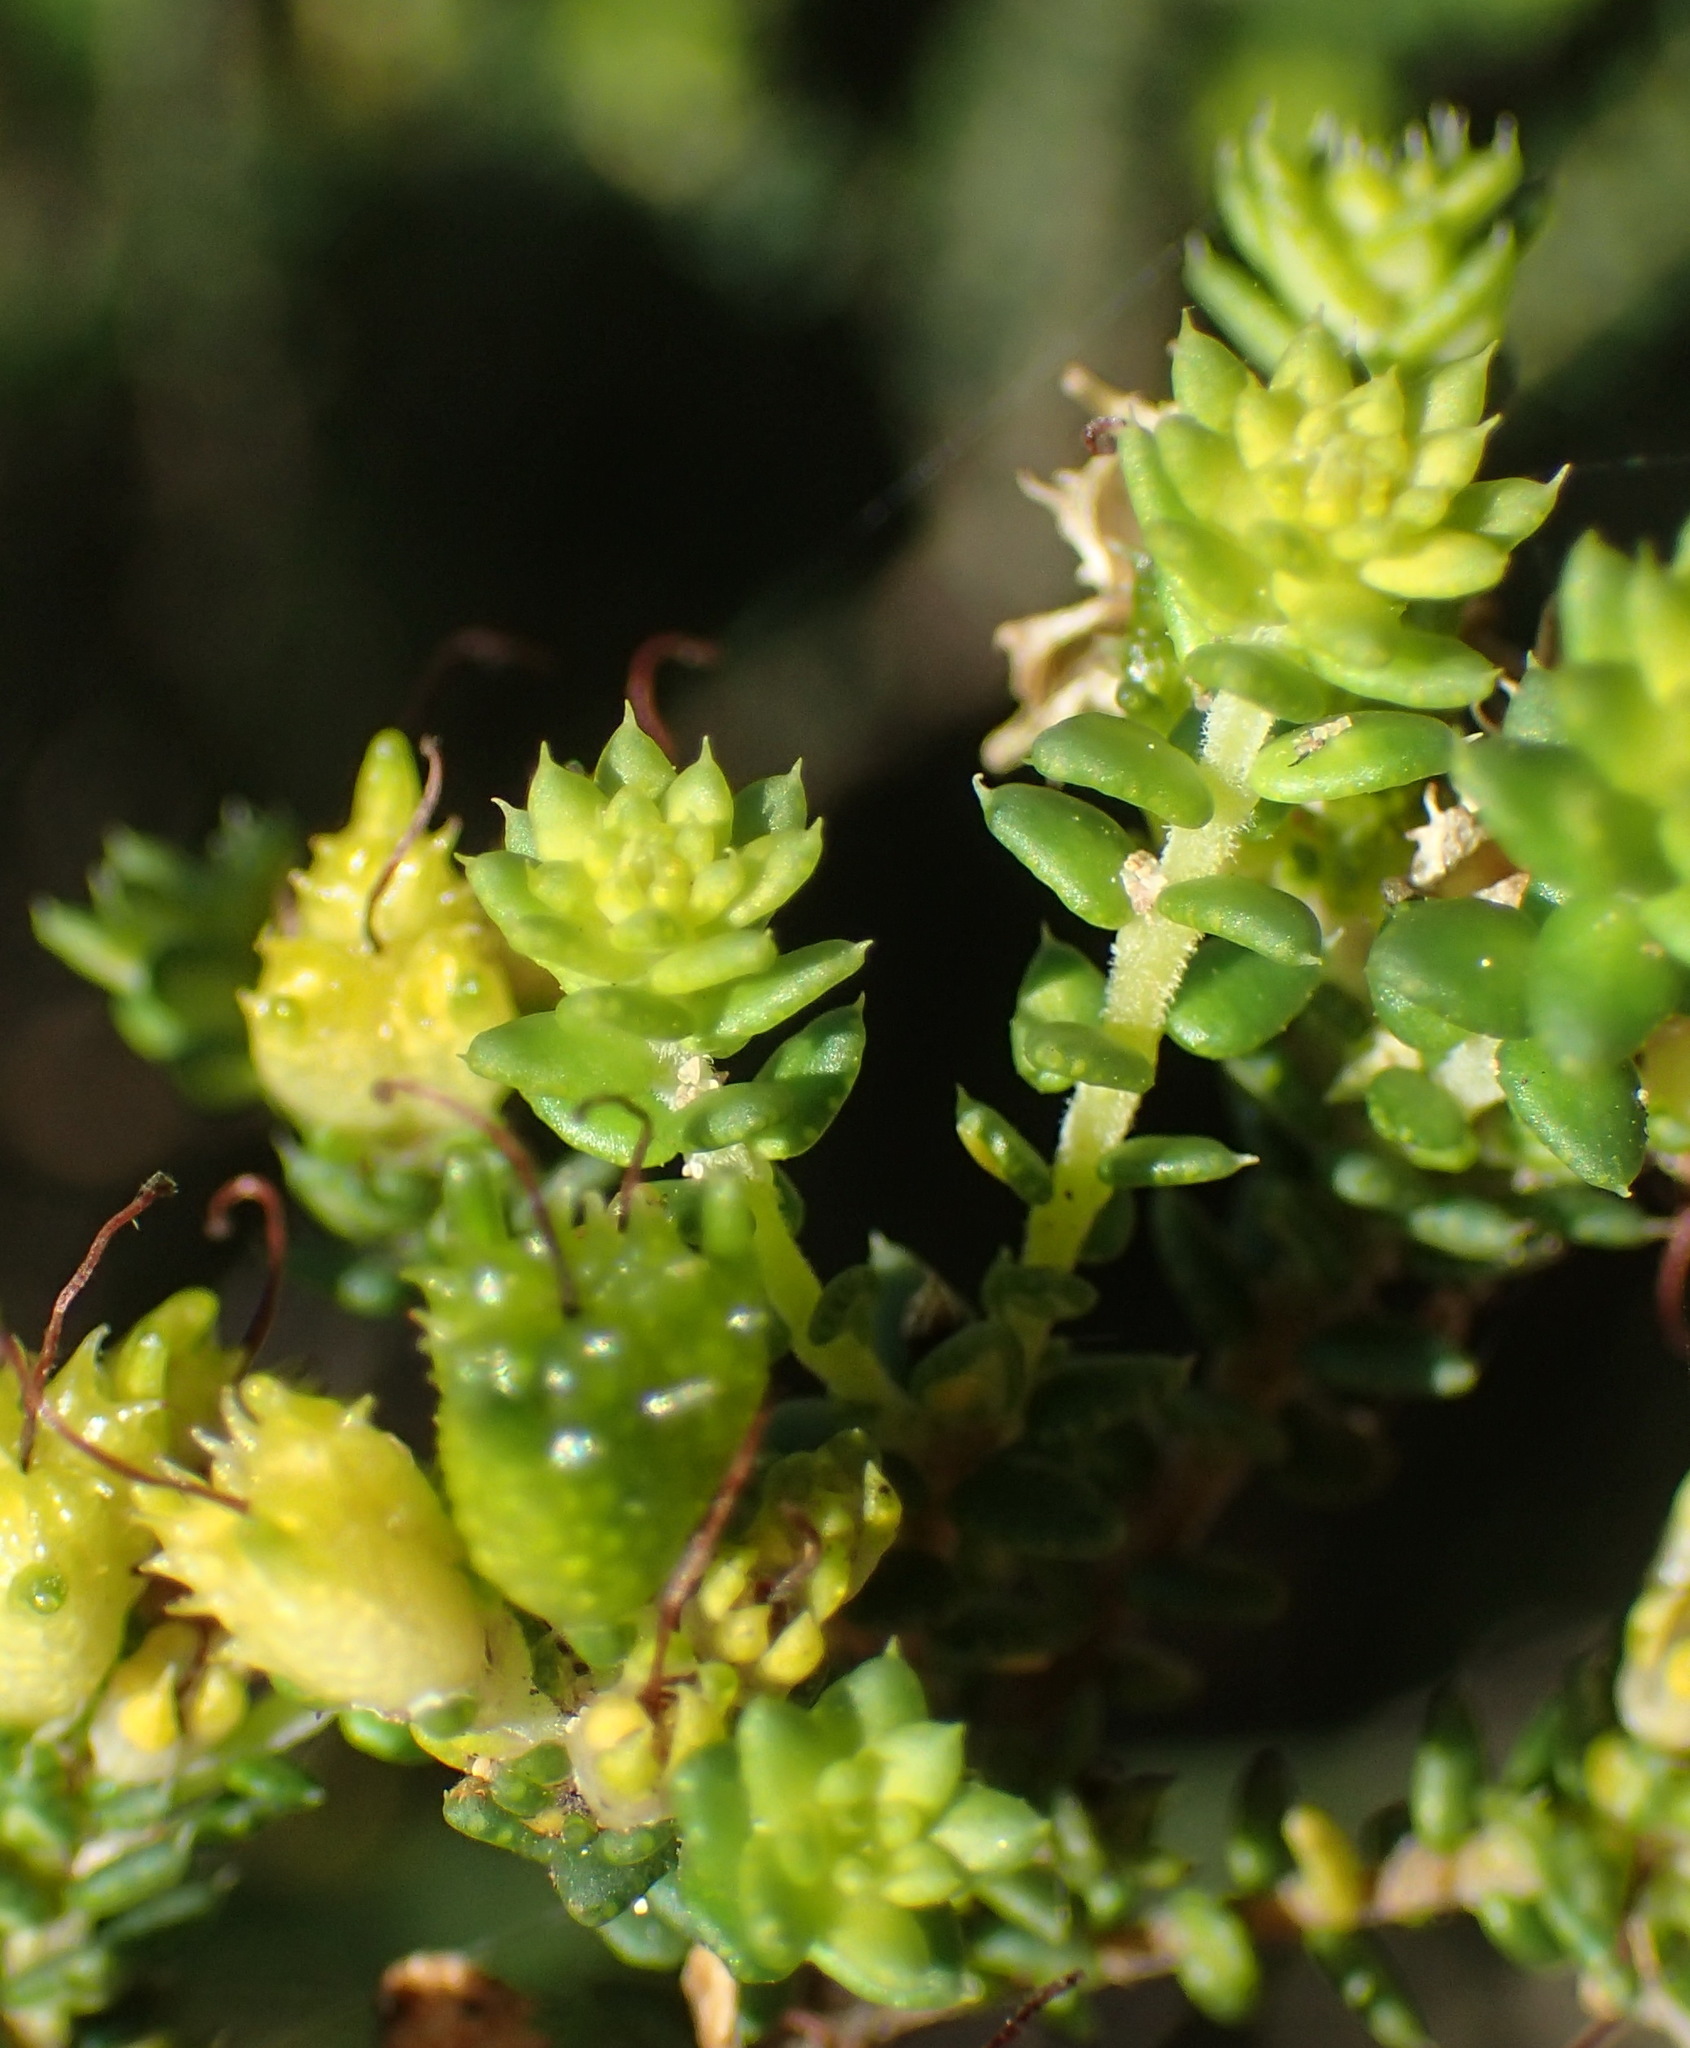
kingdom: Plantae
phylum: Tracheophyta
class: Magnoliopsida
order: Sapindales
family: Rutaceae
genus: Agathosma
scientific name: Agathosma apiculata
